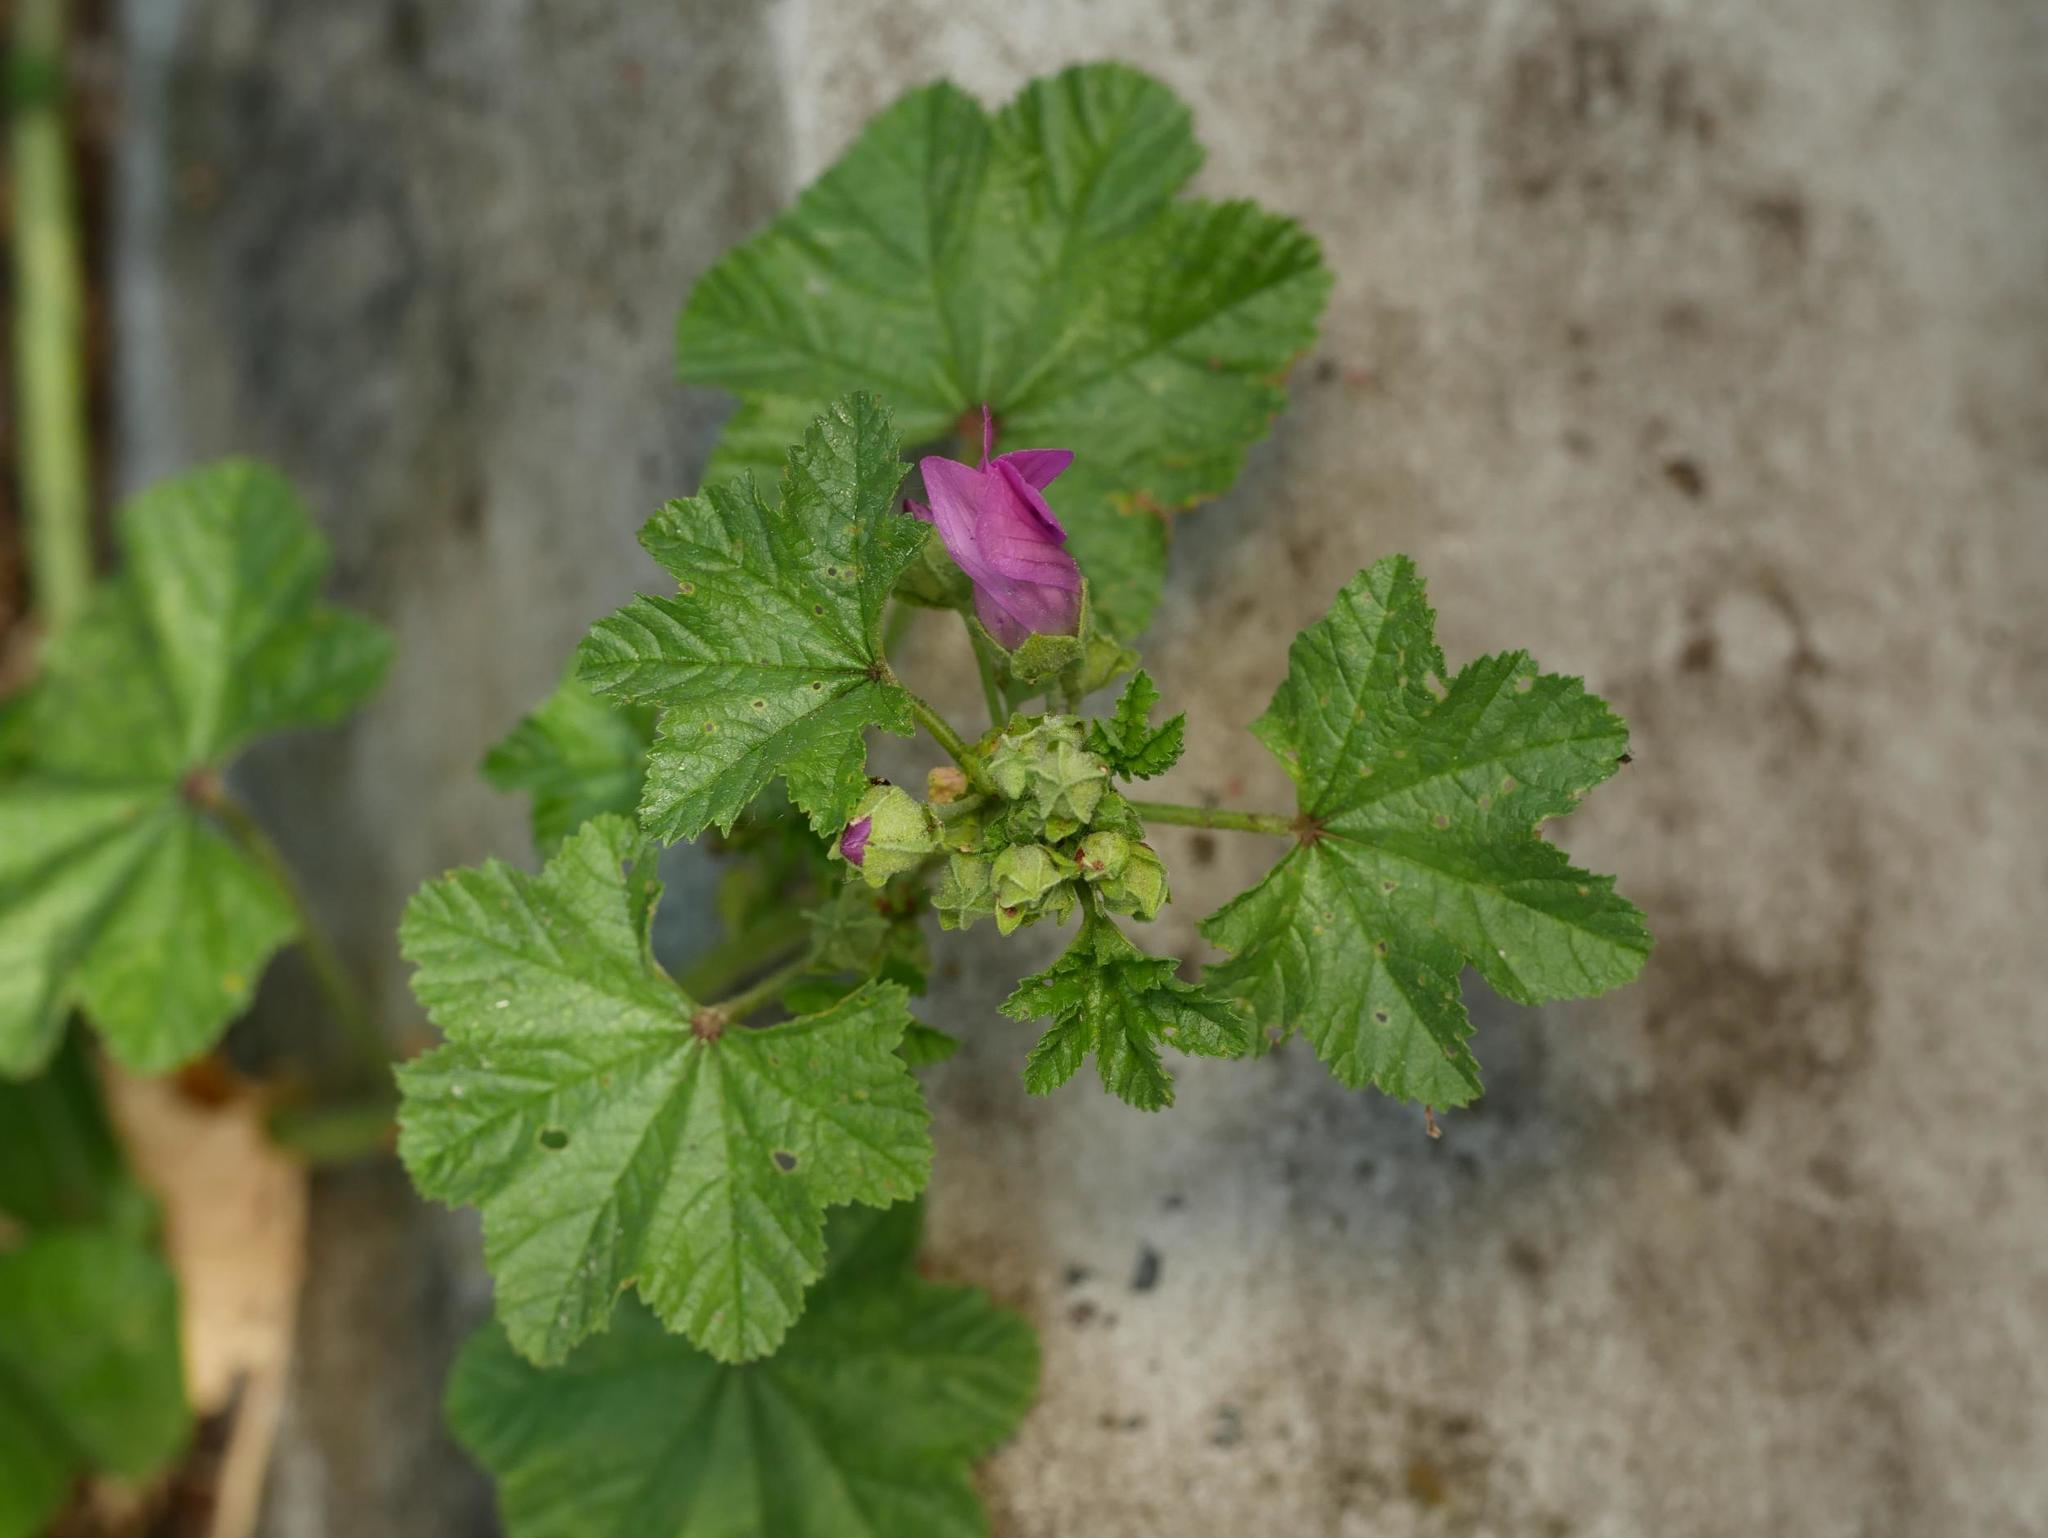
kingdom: Plantae
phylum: Tracheophyta
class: Magnoliopsida
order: Malvales
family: Malvaceae
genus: Malva
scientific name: Malva sylvestris
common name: Common mallow
